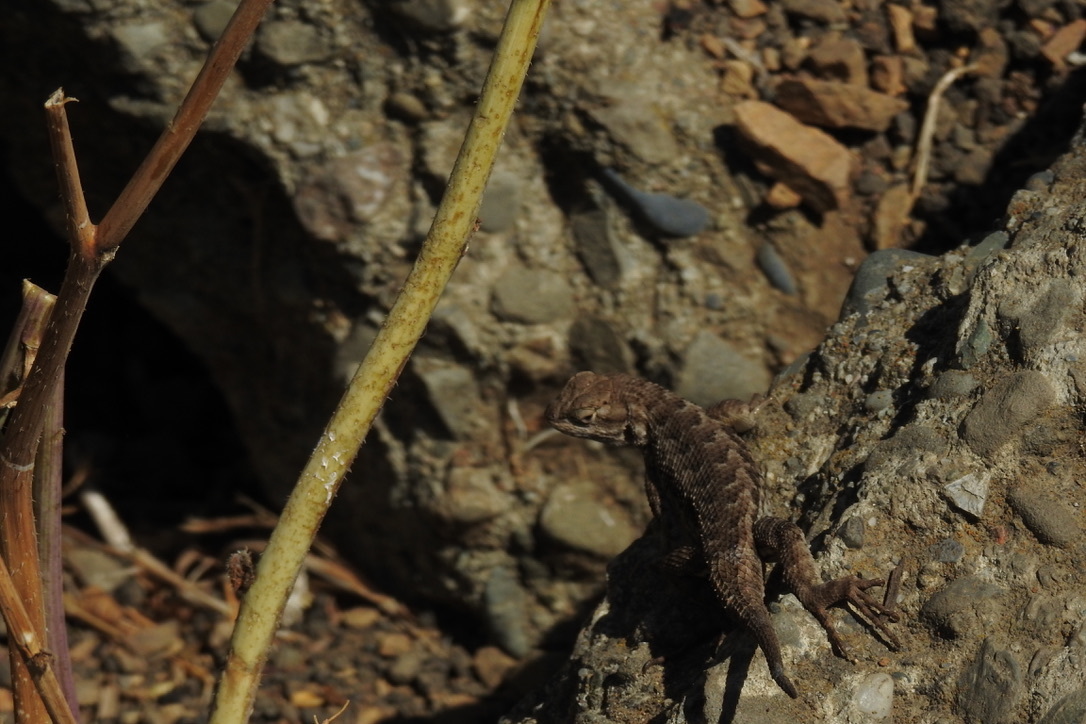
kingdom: Animalia
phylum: Chordata
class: Squamata
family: Phrynosomatidae
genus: Sceloporus
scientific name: Sceloporus occidentalis
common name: Western fence lizard
